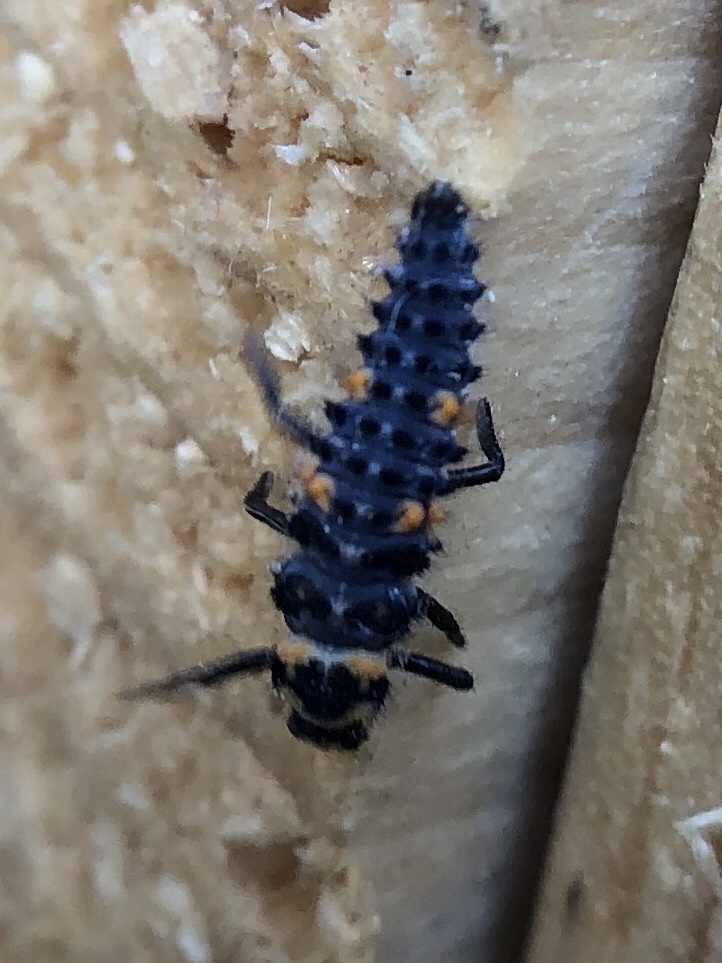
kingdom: Animalia
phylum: Arthropoda
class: Insecta
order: Coleoptera
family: Coccinellidae
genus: Coccinella
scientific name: Coccinella septempunctata
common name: Sevenspotted lady beetle
